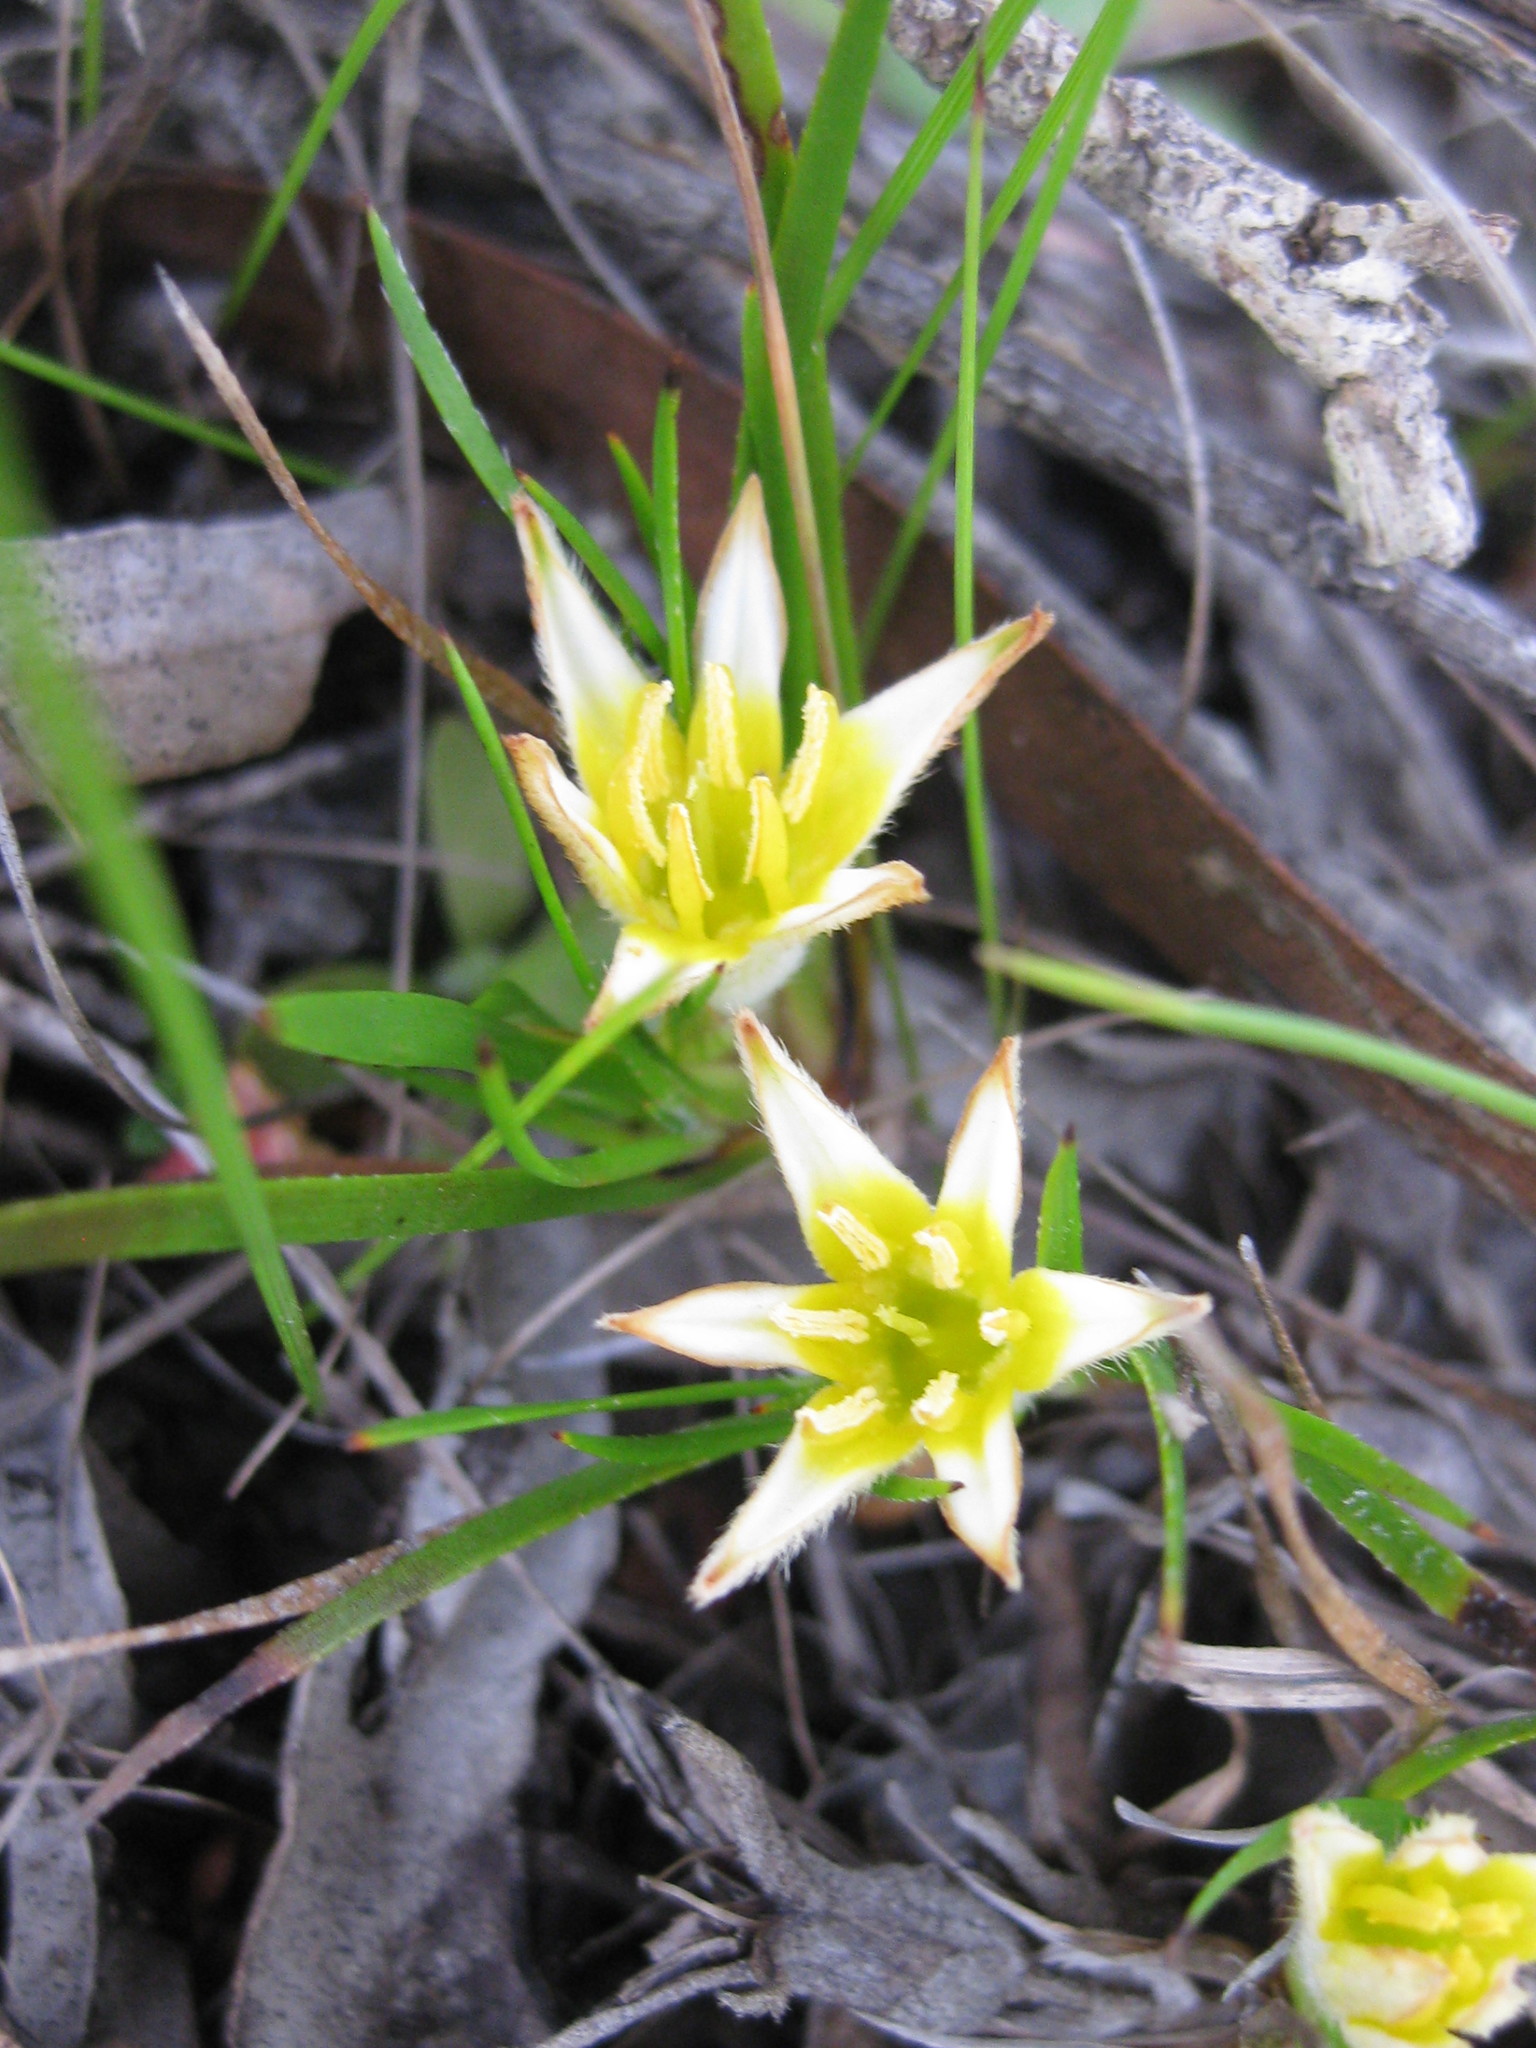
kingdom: Plantae
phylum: Tracheophyta
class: Liliopsida
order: Commelinales
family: Haemodoraceae
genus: Conostylis
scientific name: Conostylis seorsiflora
